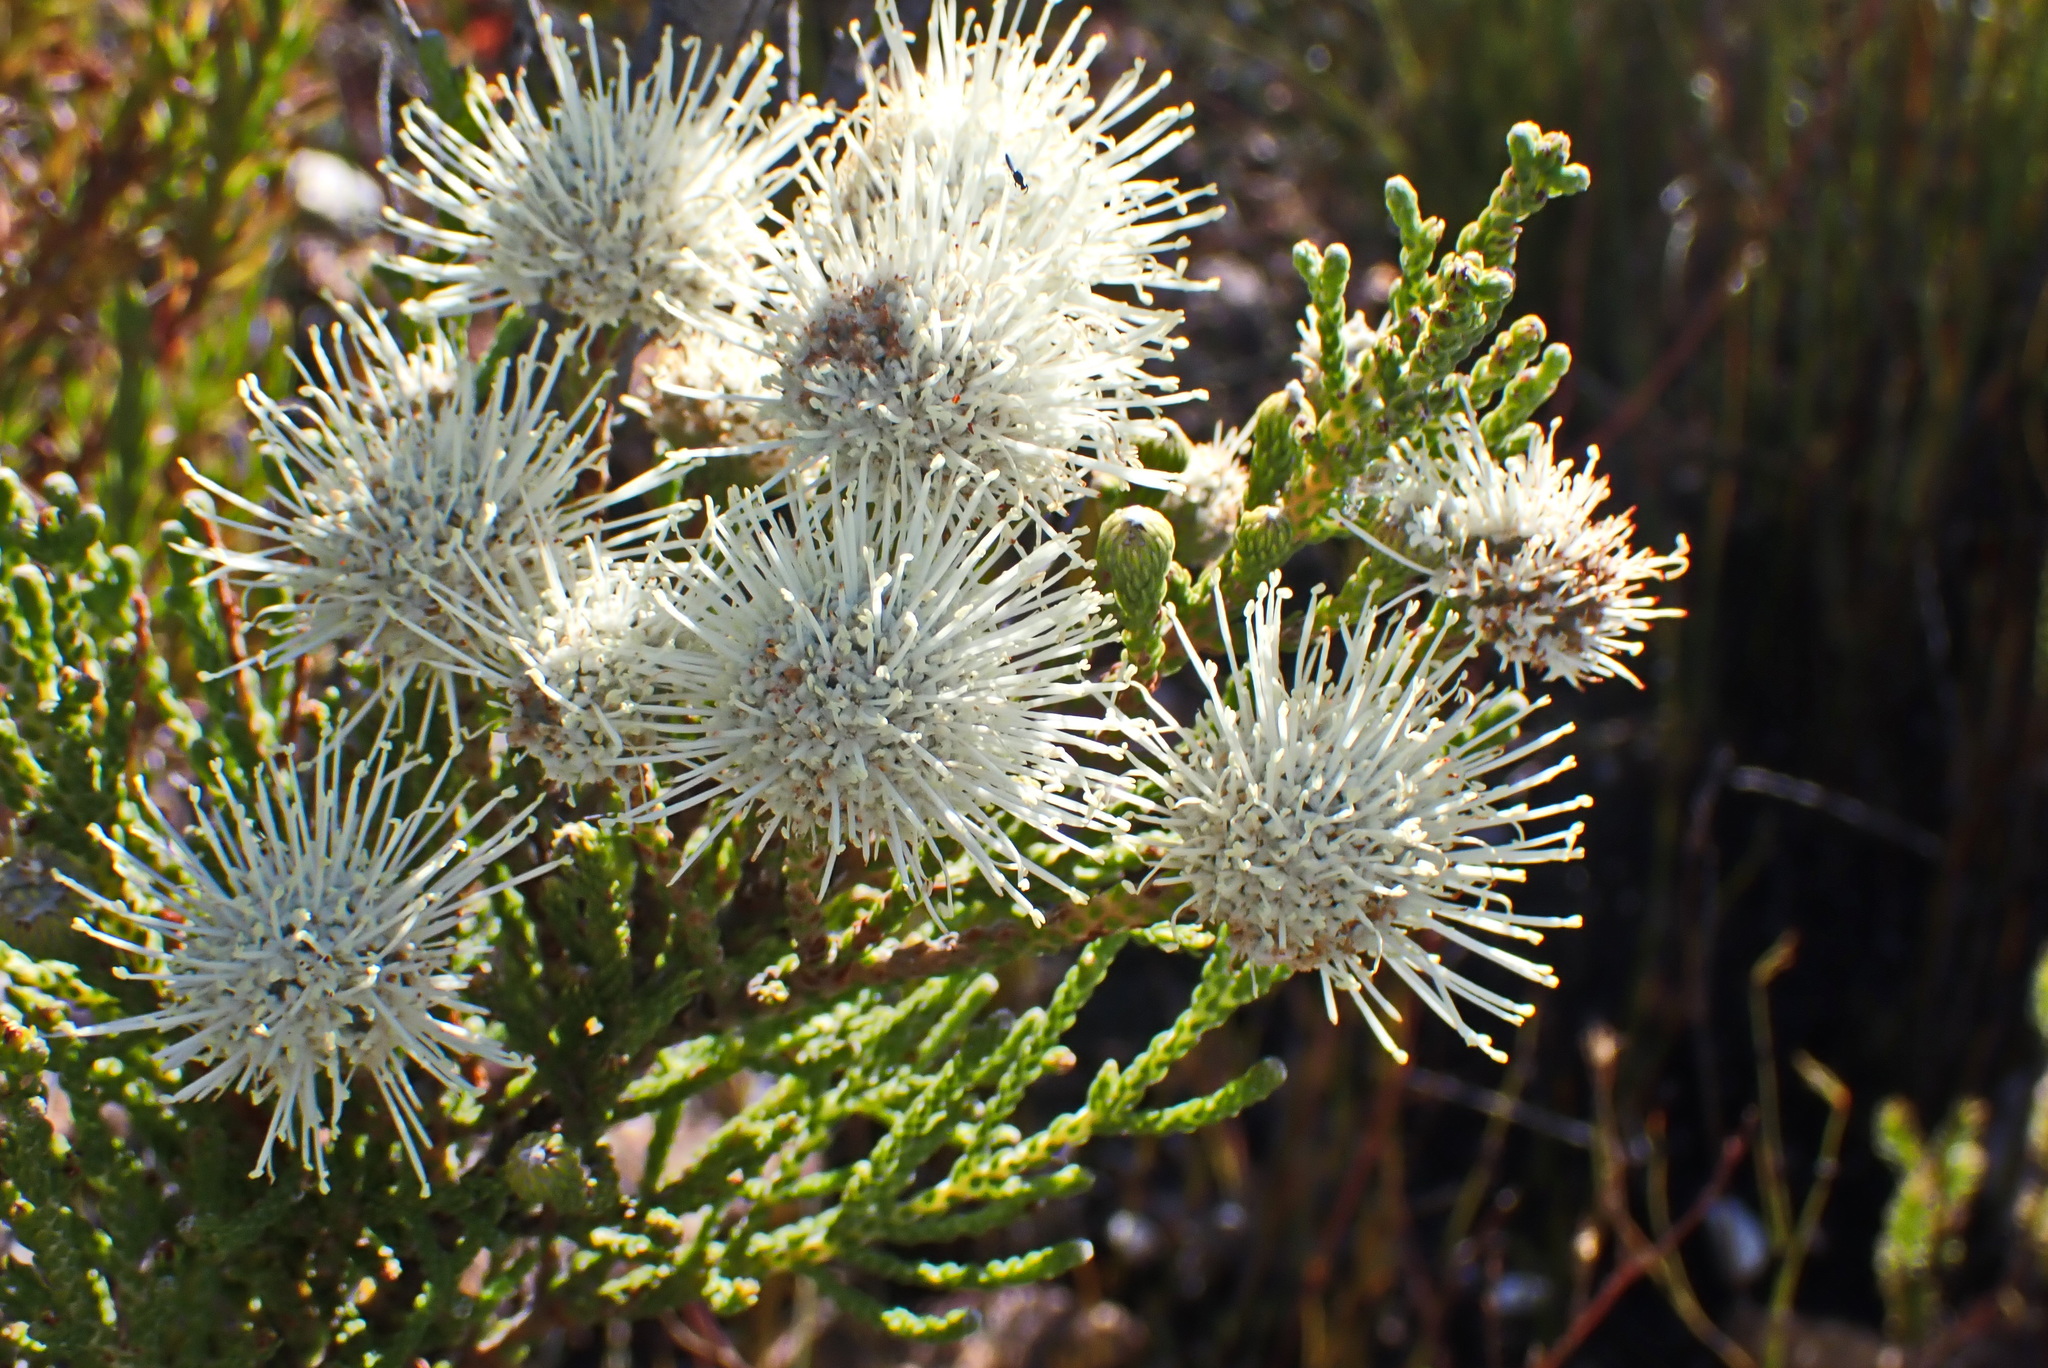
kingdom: Plantae
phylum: Tracheophyta
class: Magnoliopsida
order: Bruniales
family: Bruniaceae
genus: Brunia
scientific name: Brunia noduliflora
